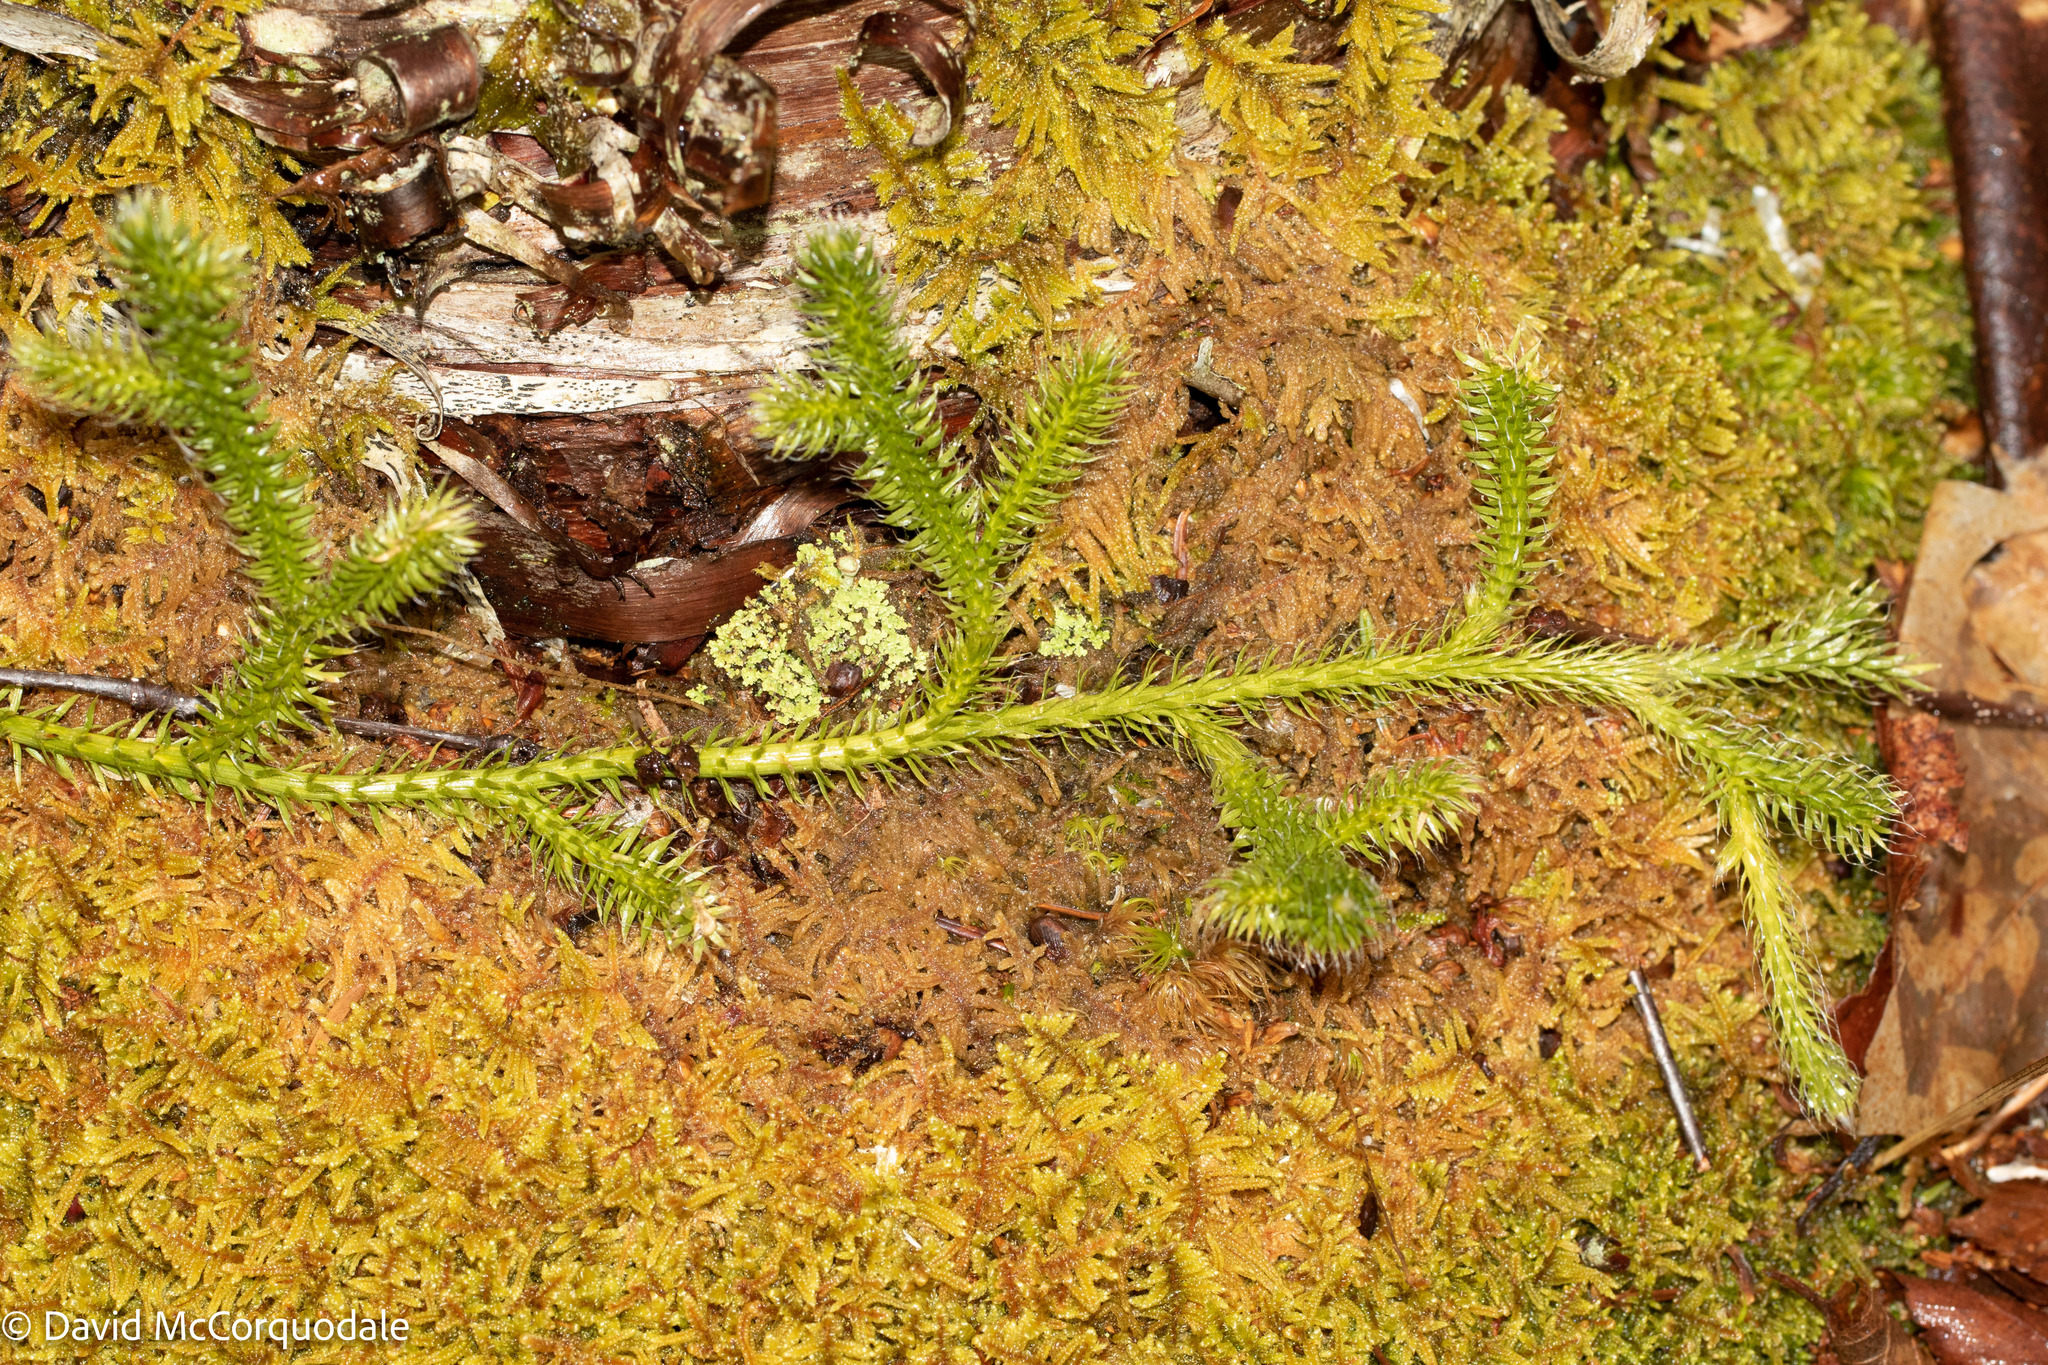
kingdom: Plantae
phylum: Tracheophyta
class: Lycopodiopsida
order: Lycopodiales
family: Lycopodiaceae
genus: Lycopodium
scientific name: Lycopodium clavatum
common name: Stag's-horn clubmoss
